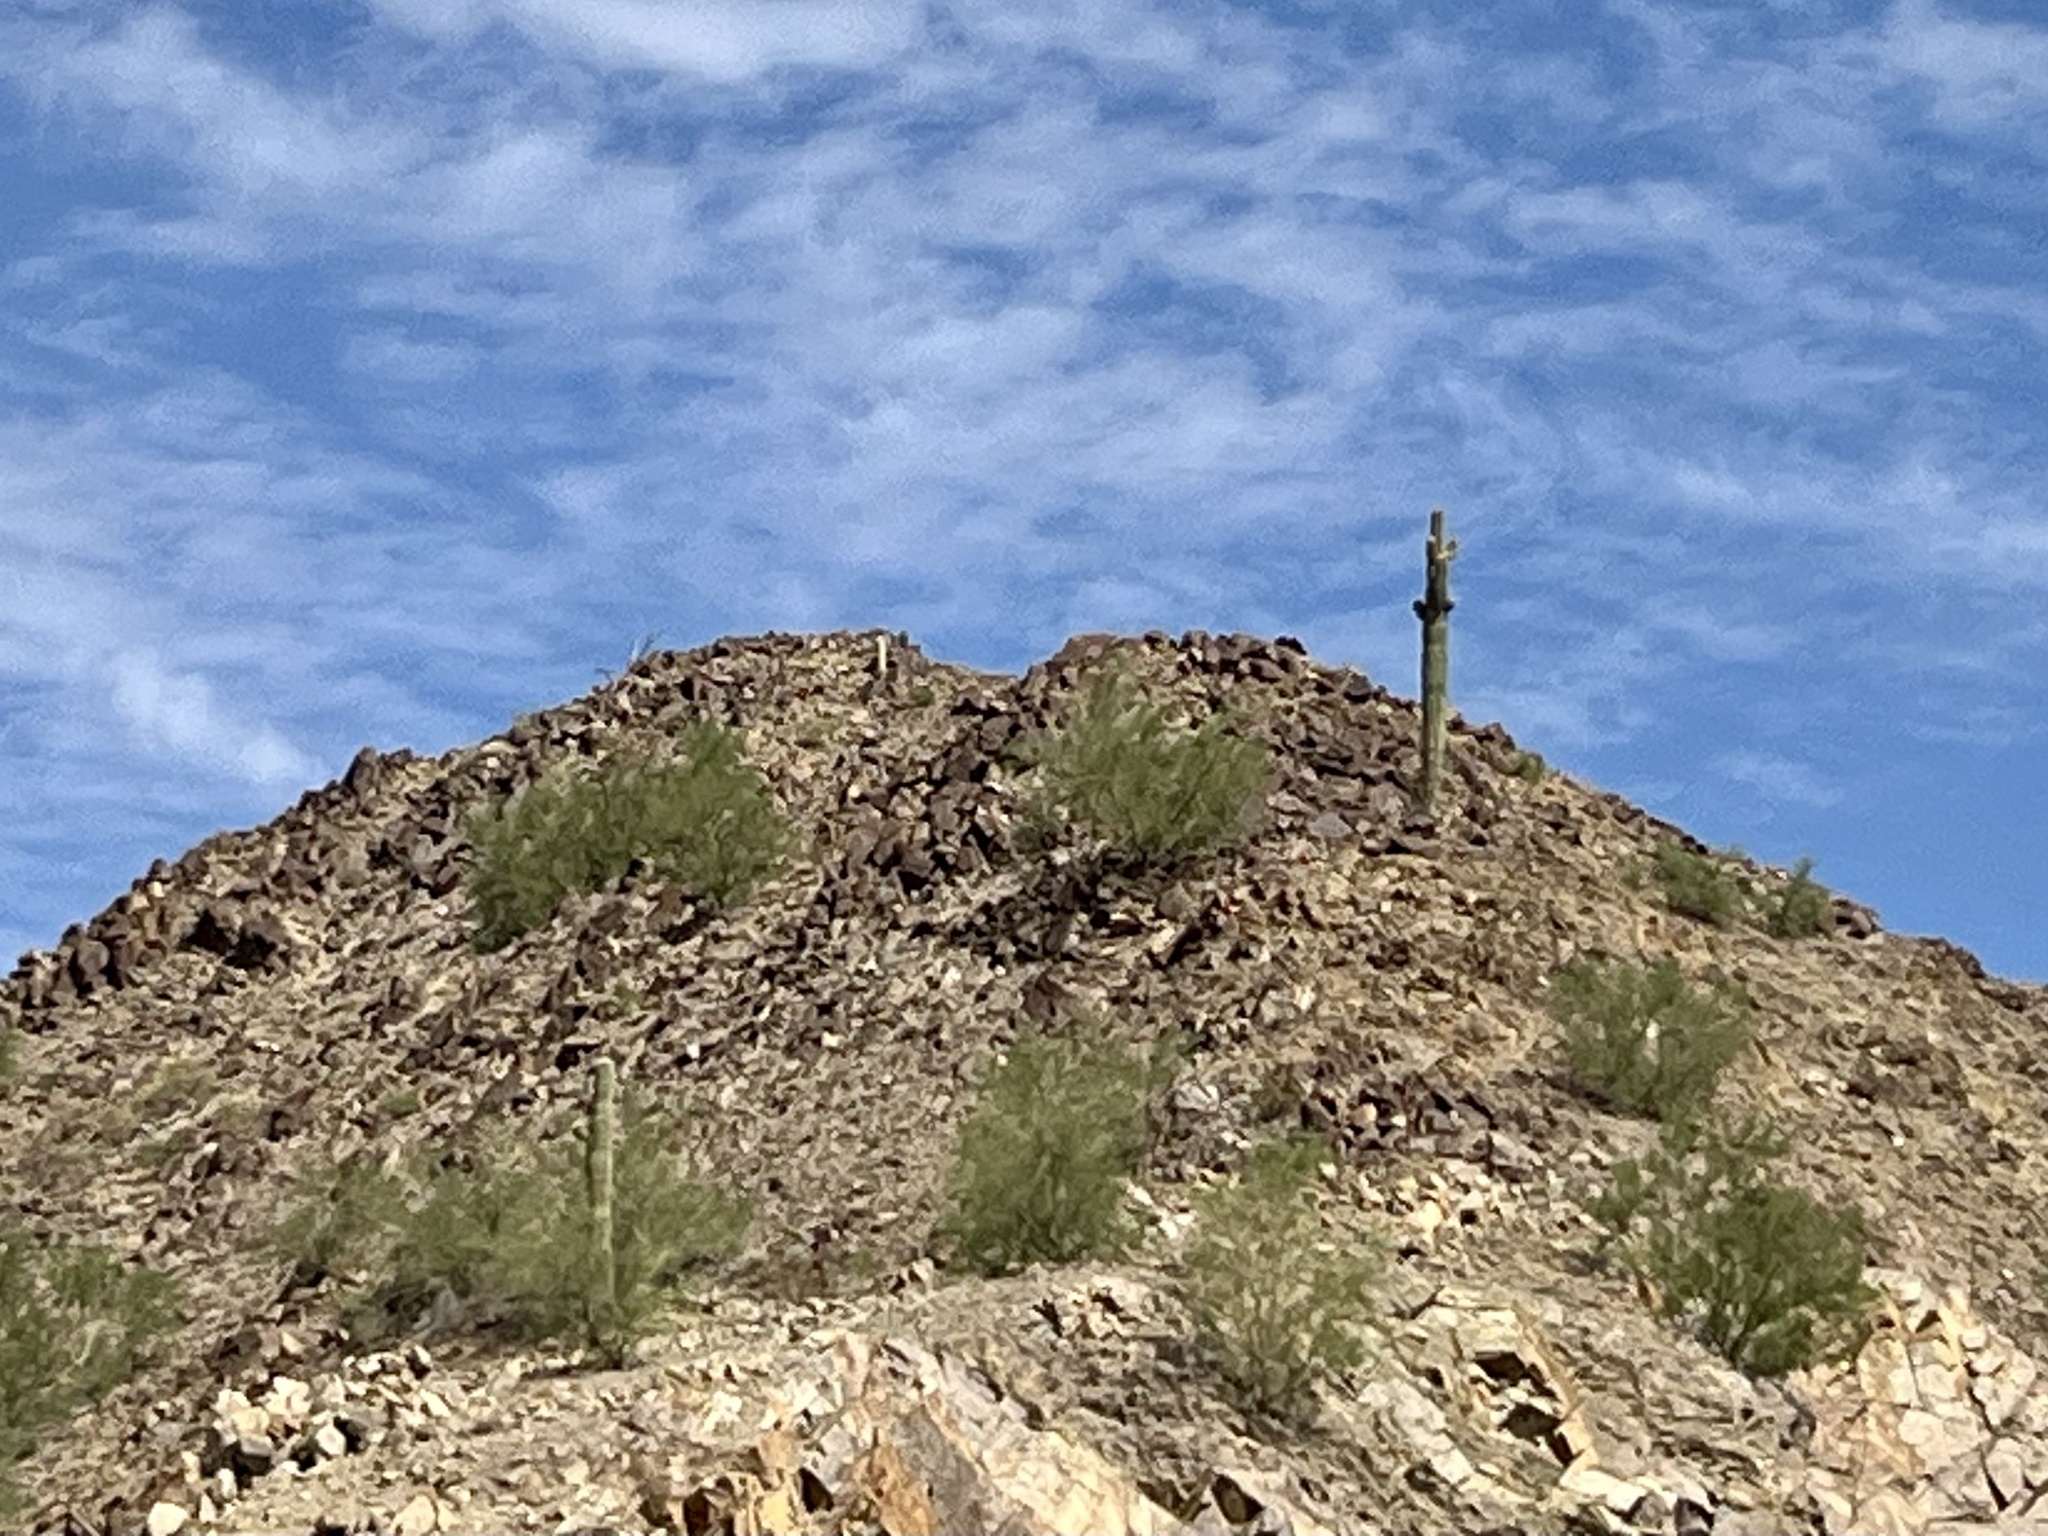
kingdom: Plantae
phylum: Tracheophyta
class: Magnoliopsida
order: Caryophyllales
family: Cactaceae
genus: Carnegiea
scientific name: Carnegiea gigantea
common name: Saguaro
